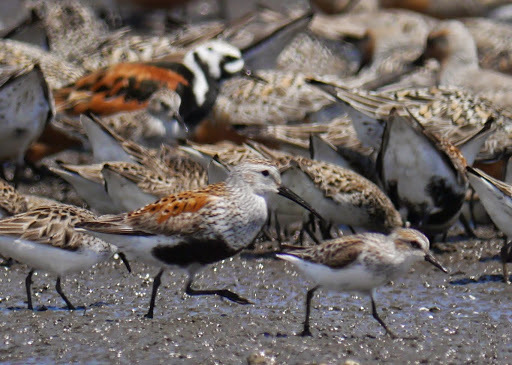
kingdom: Animalia
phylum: Chordata
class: Aves
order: Charadriiformes
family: Scolopacidae
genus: Arenaria
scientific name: Arenaria interpres
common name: Ruddy turnstone
